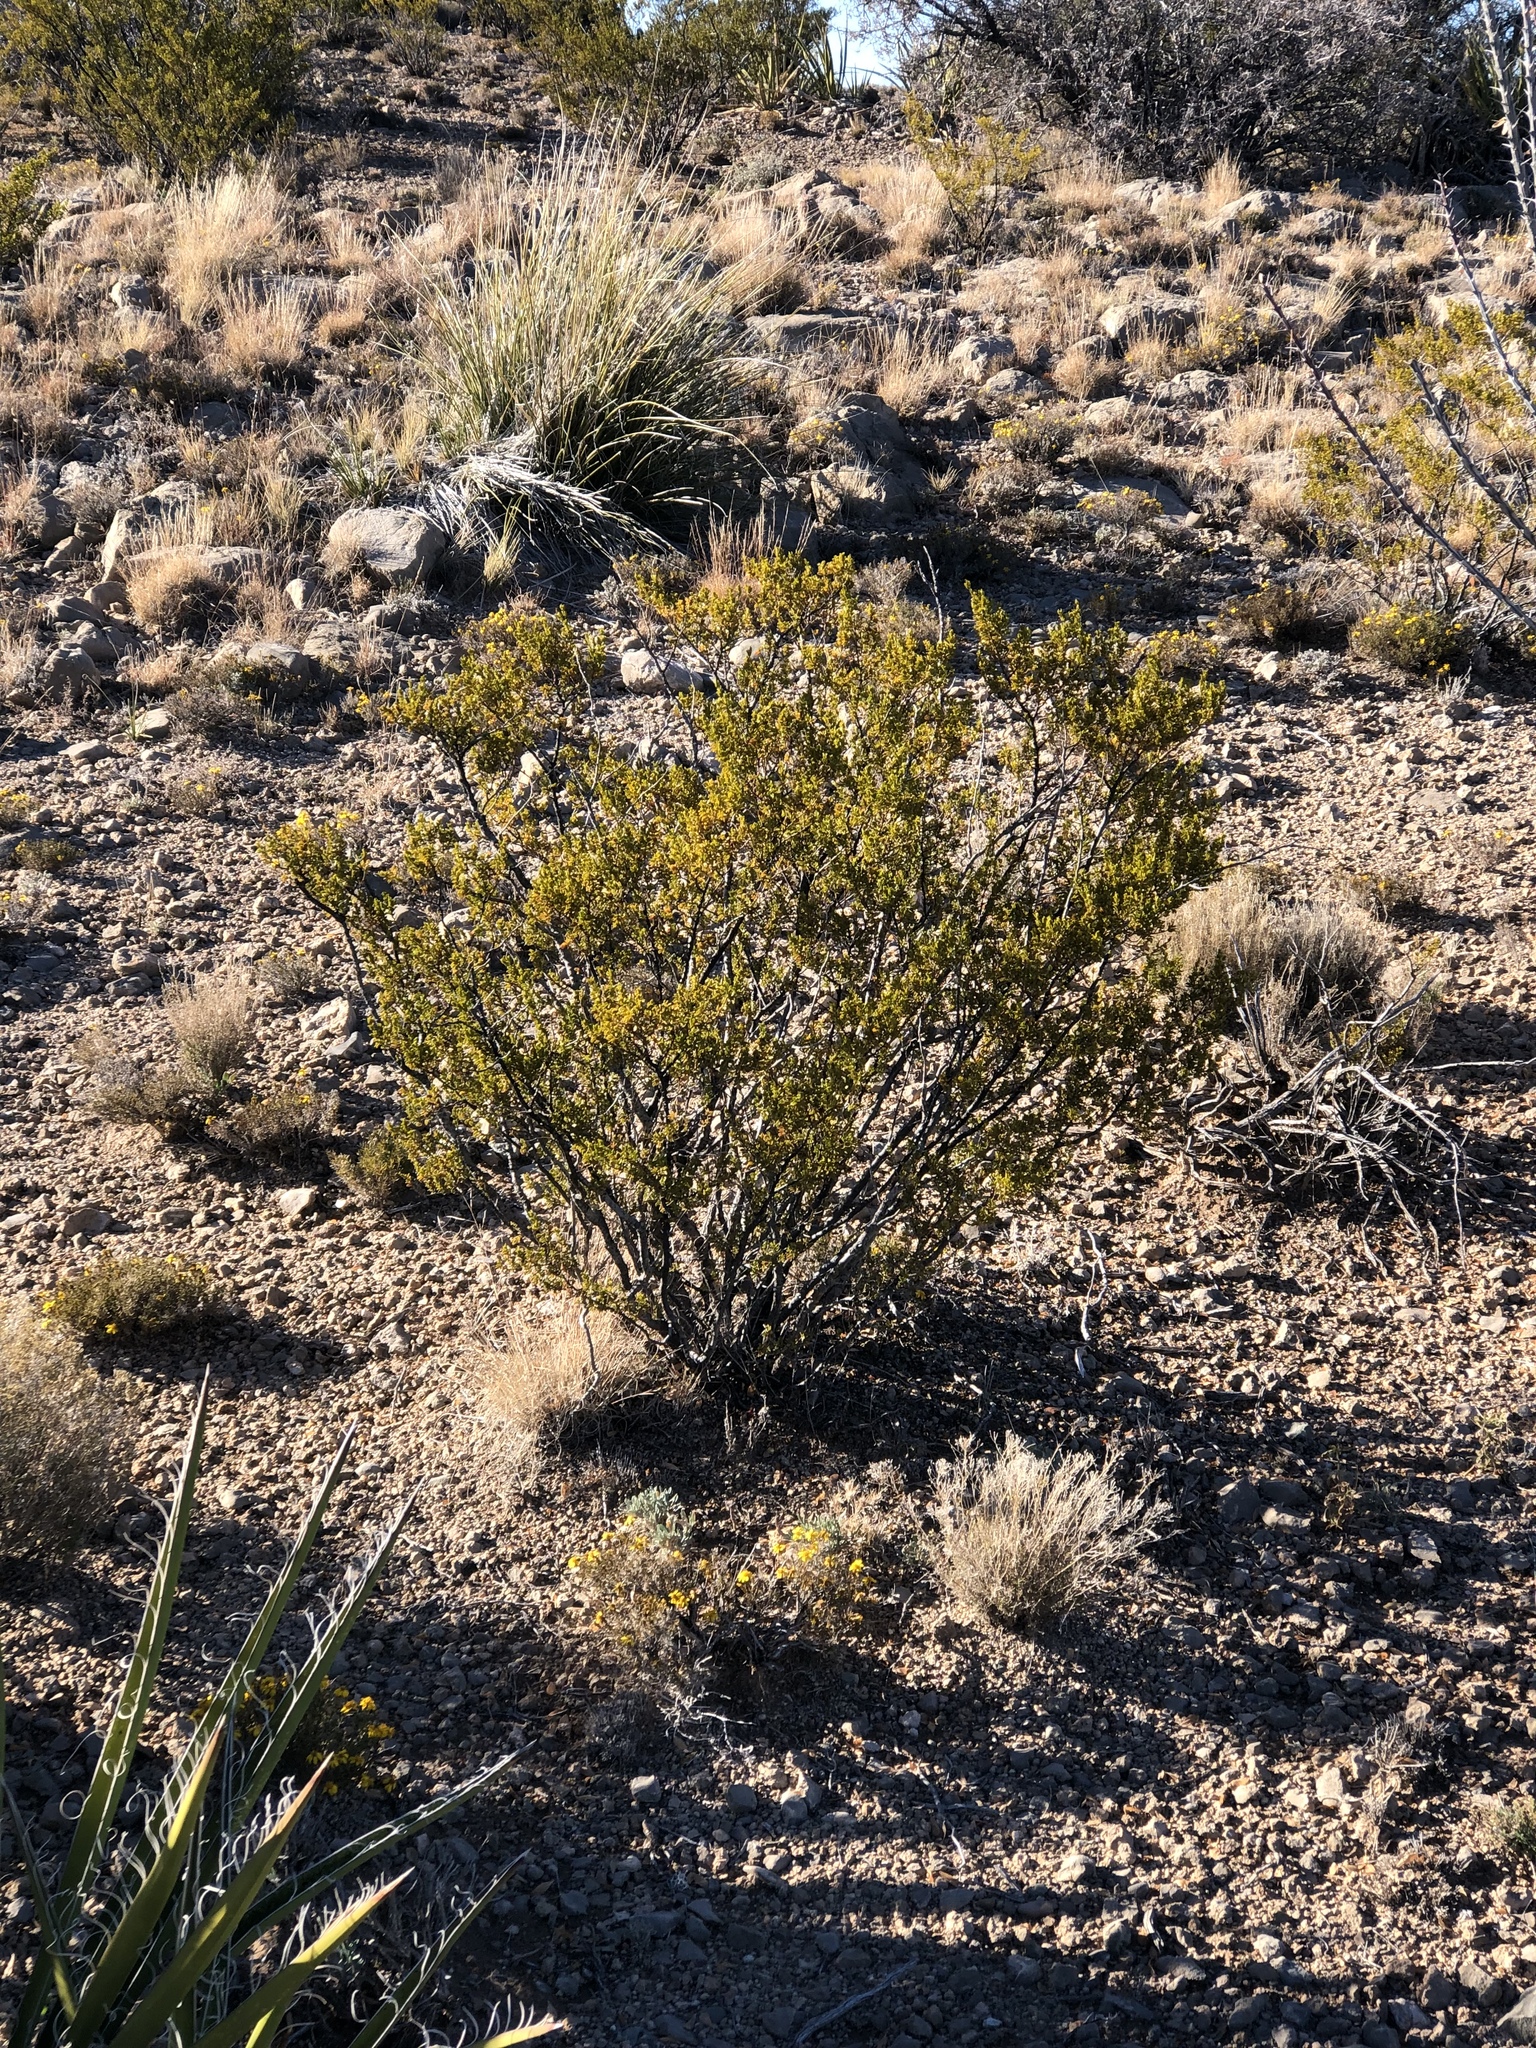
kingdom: Plantae
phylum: Tracheophyta
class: Magnoliopsida
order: Zygophyllales
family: Zygophyllaceae
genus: Larrea
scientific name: Larrea tridentata
